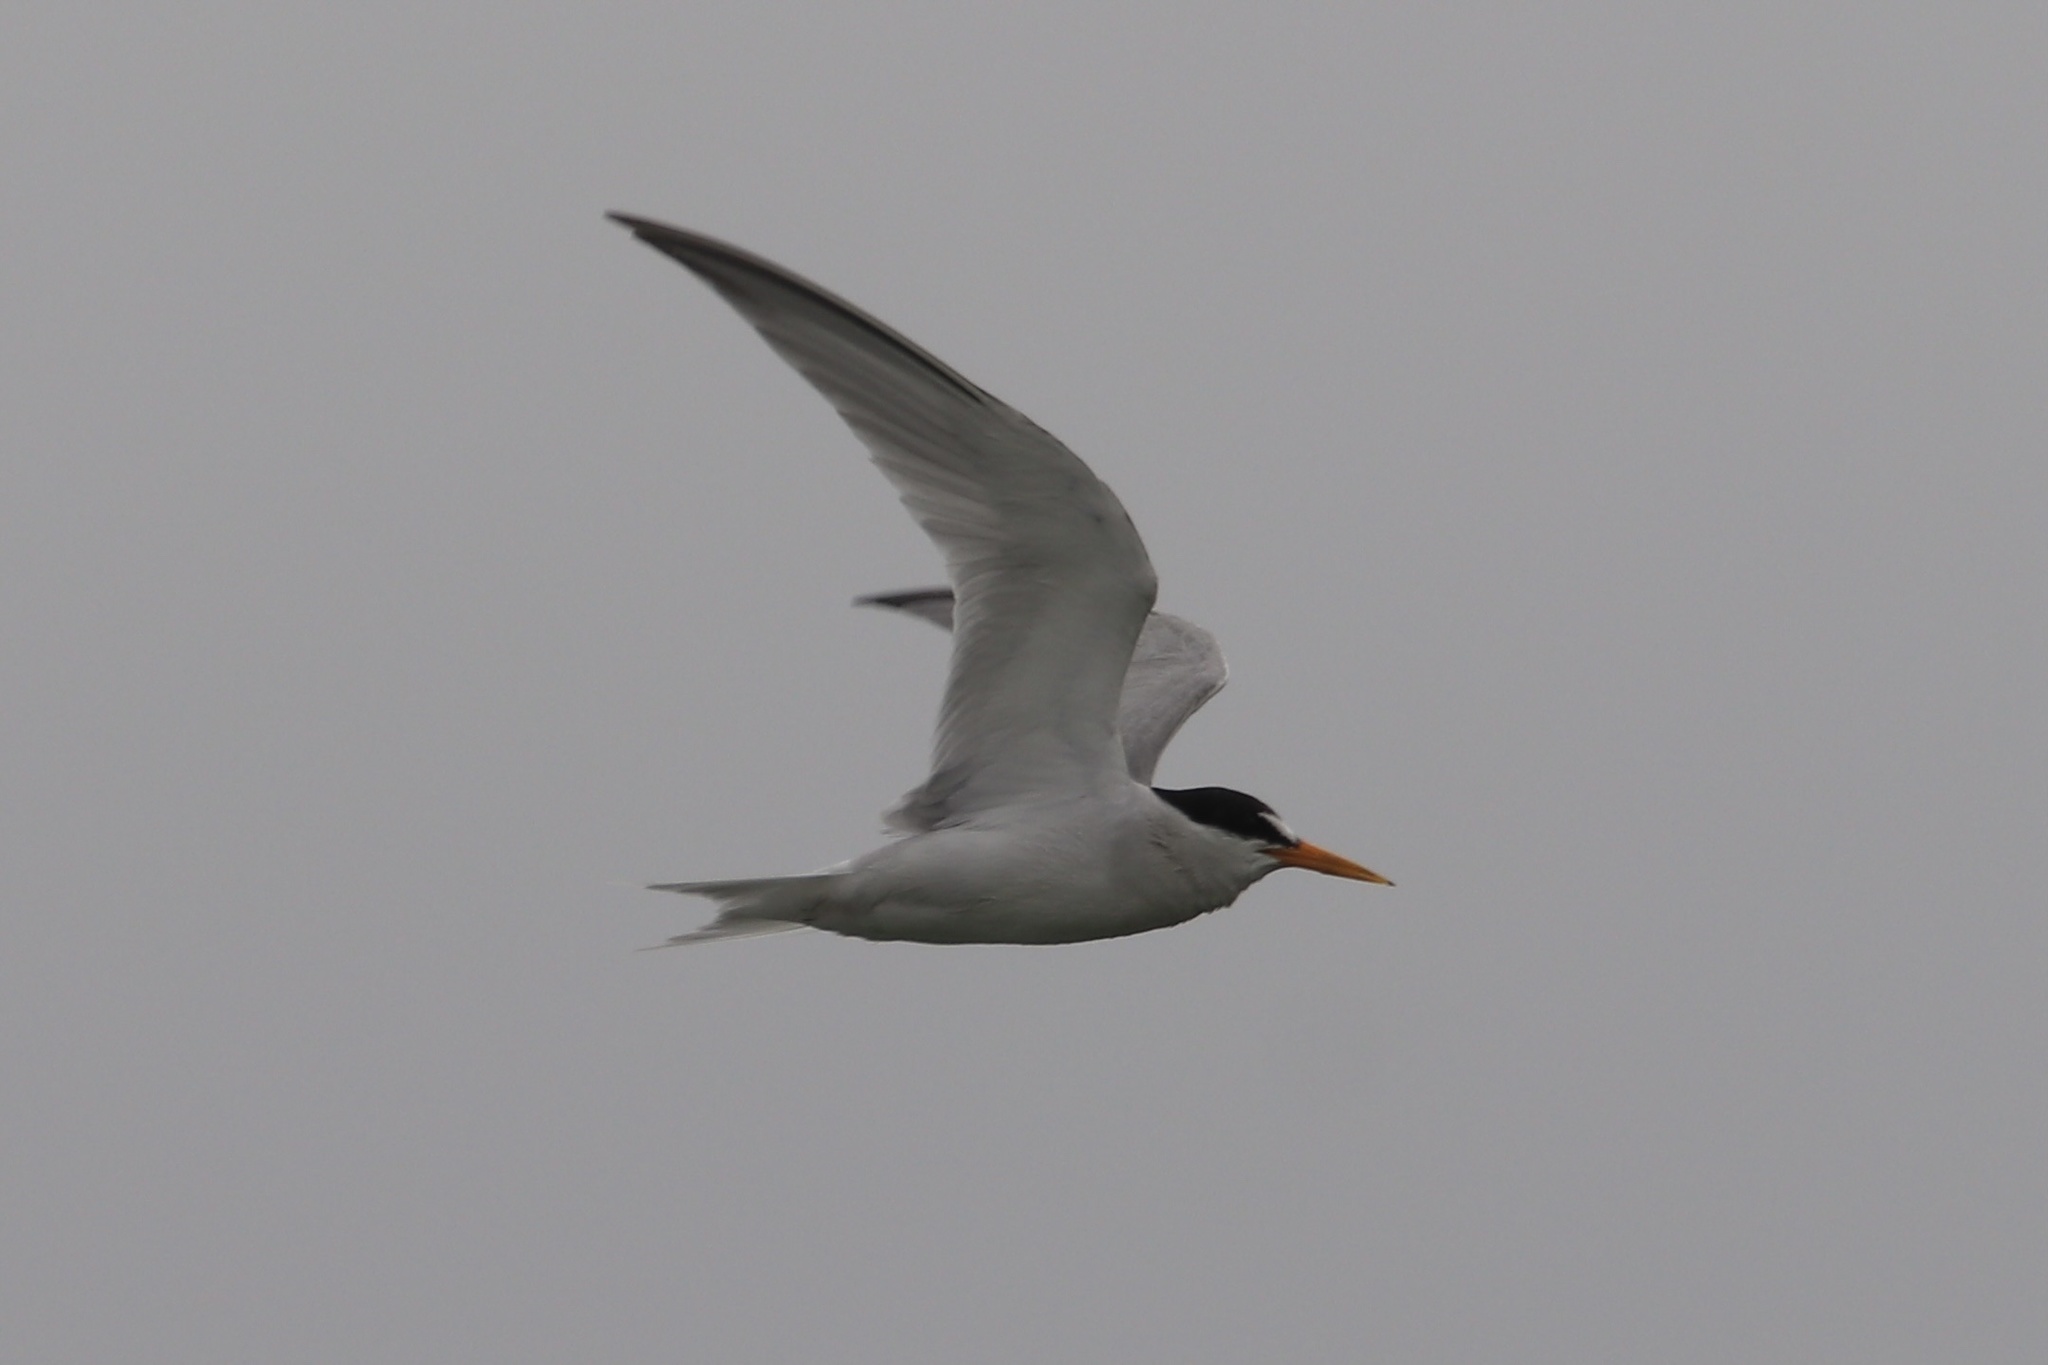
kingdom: Animalia
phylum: Chordata
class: Aves
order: Charadriiformes
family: Laridae
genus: Sternula
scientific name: Sternula antillarum
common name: Least tern
